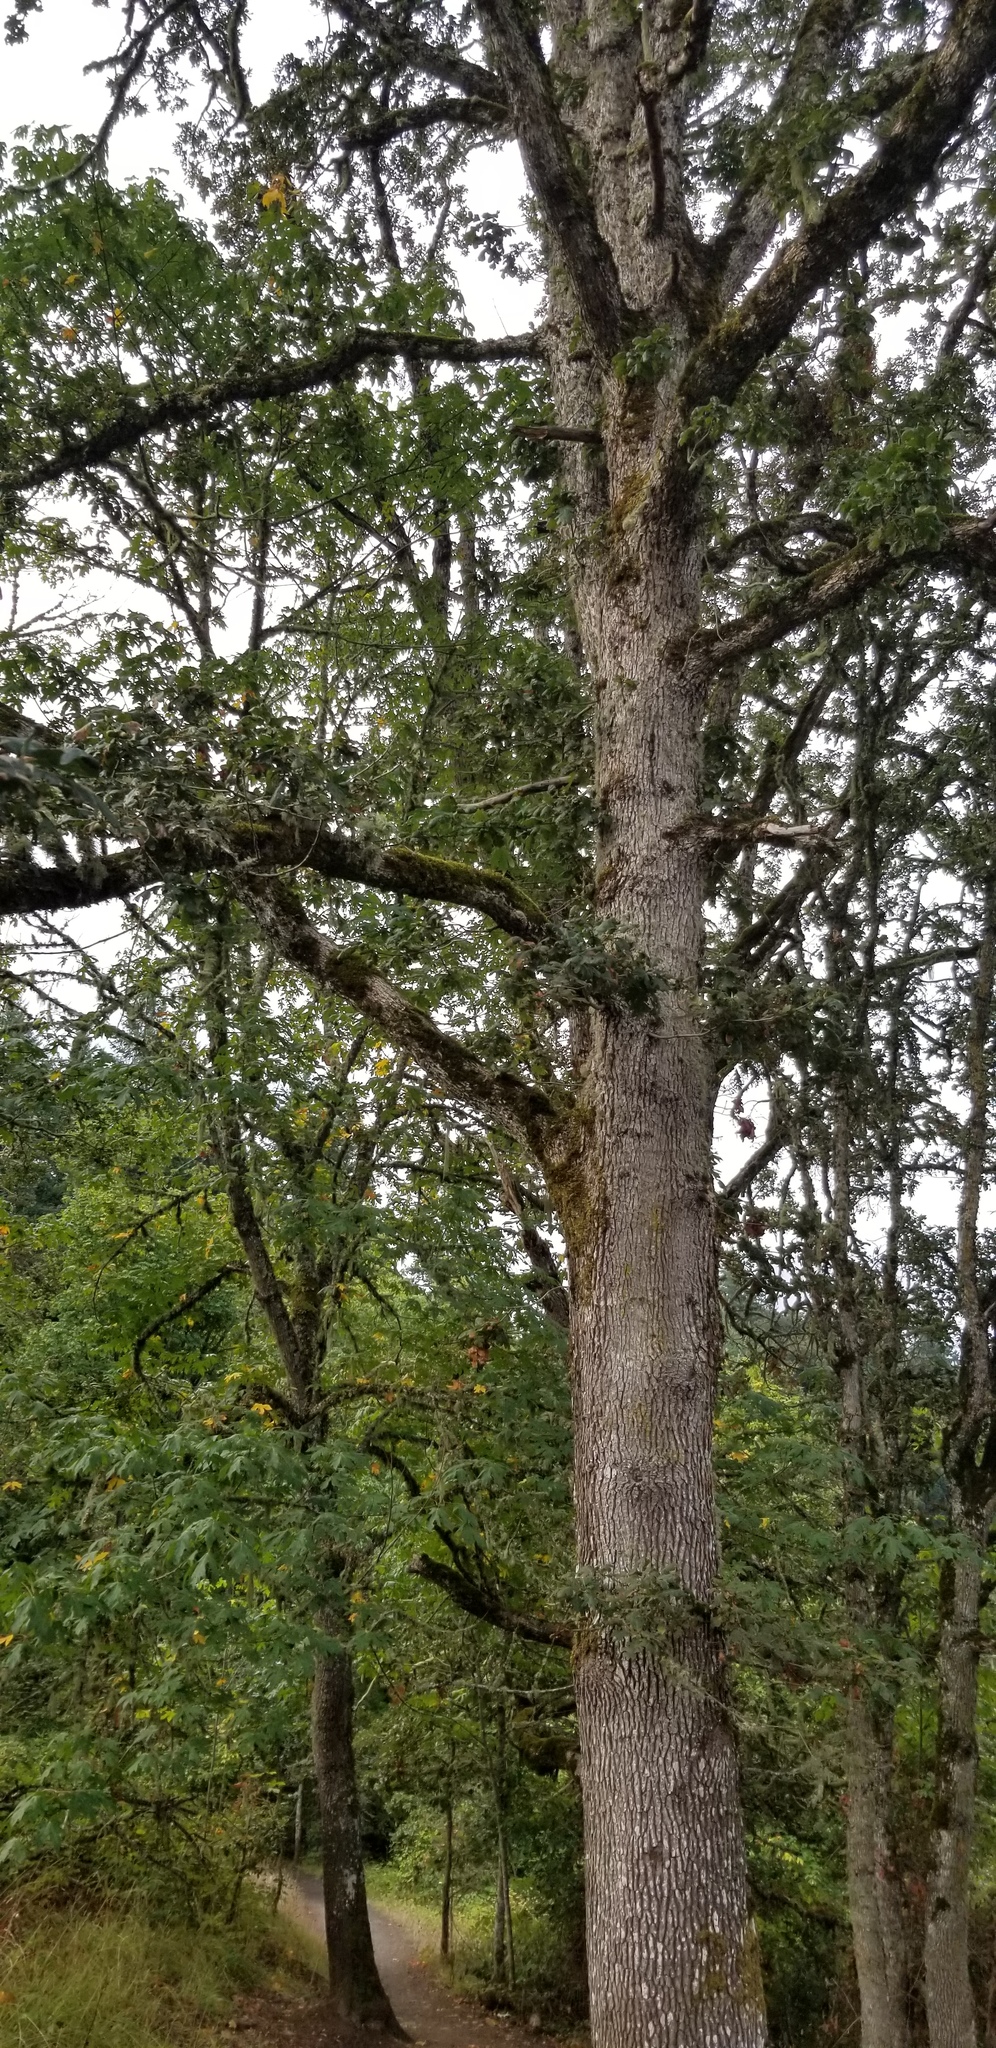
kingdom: Plantae
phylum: Tracheophyta
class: Magnoliopsida
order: Fagales
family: Fagaceae
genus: Quercus
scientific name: Quercus garryana
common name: Garry oak
